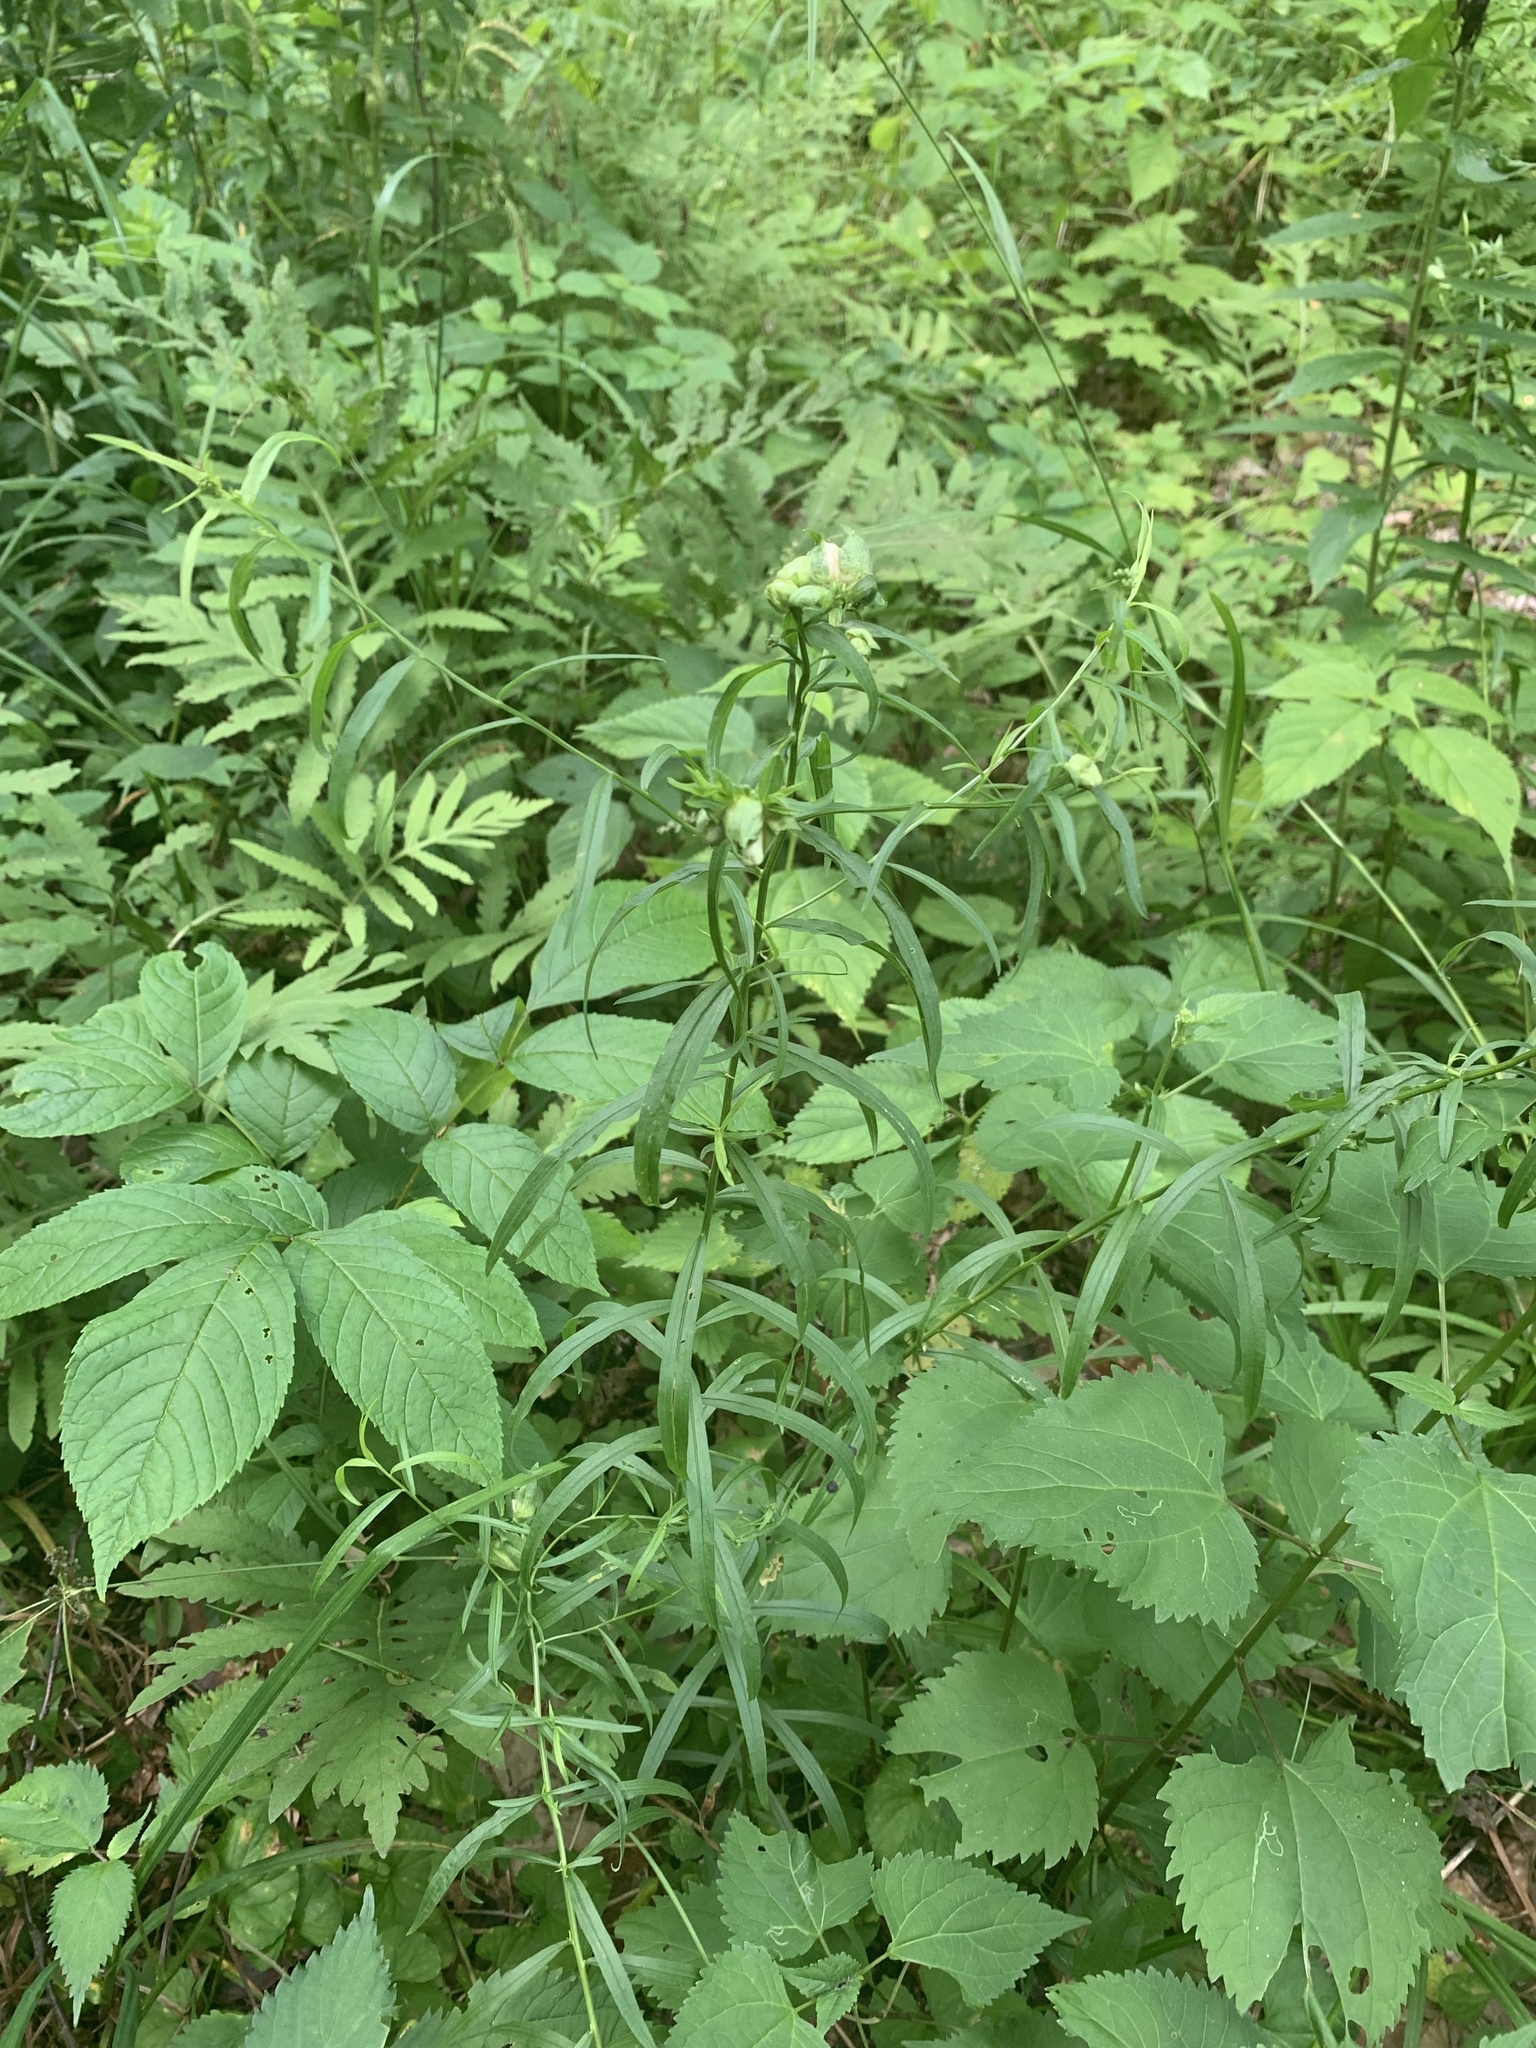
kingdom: Plantae
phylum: Tracheophyta
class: Magnoliopsida
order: Lamiales
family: Plantaginaceae
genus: Chelone
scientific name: Chelone glabra
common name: Snakehead
